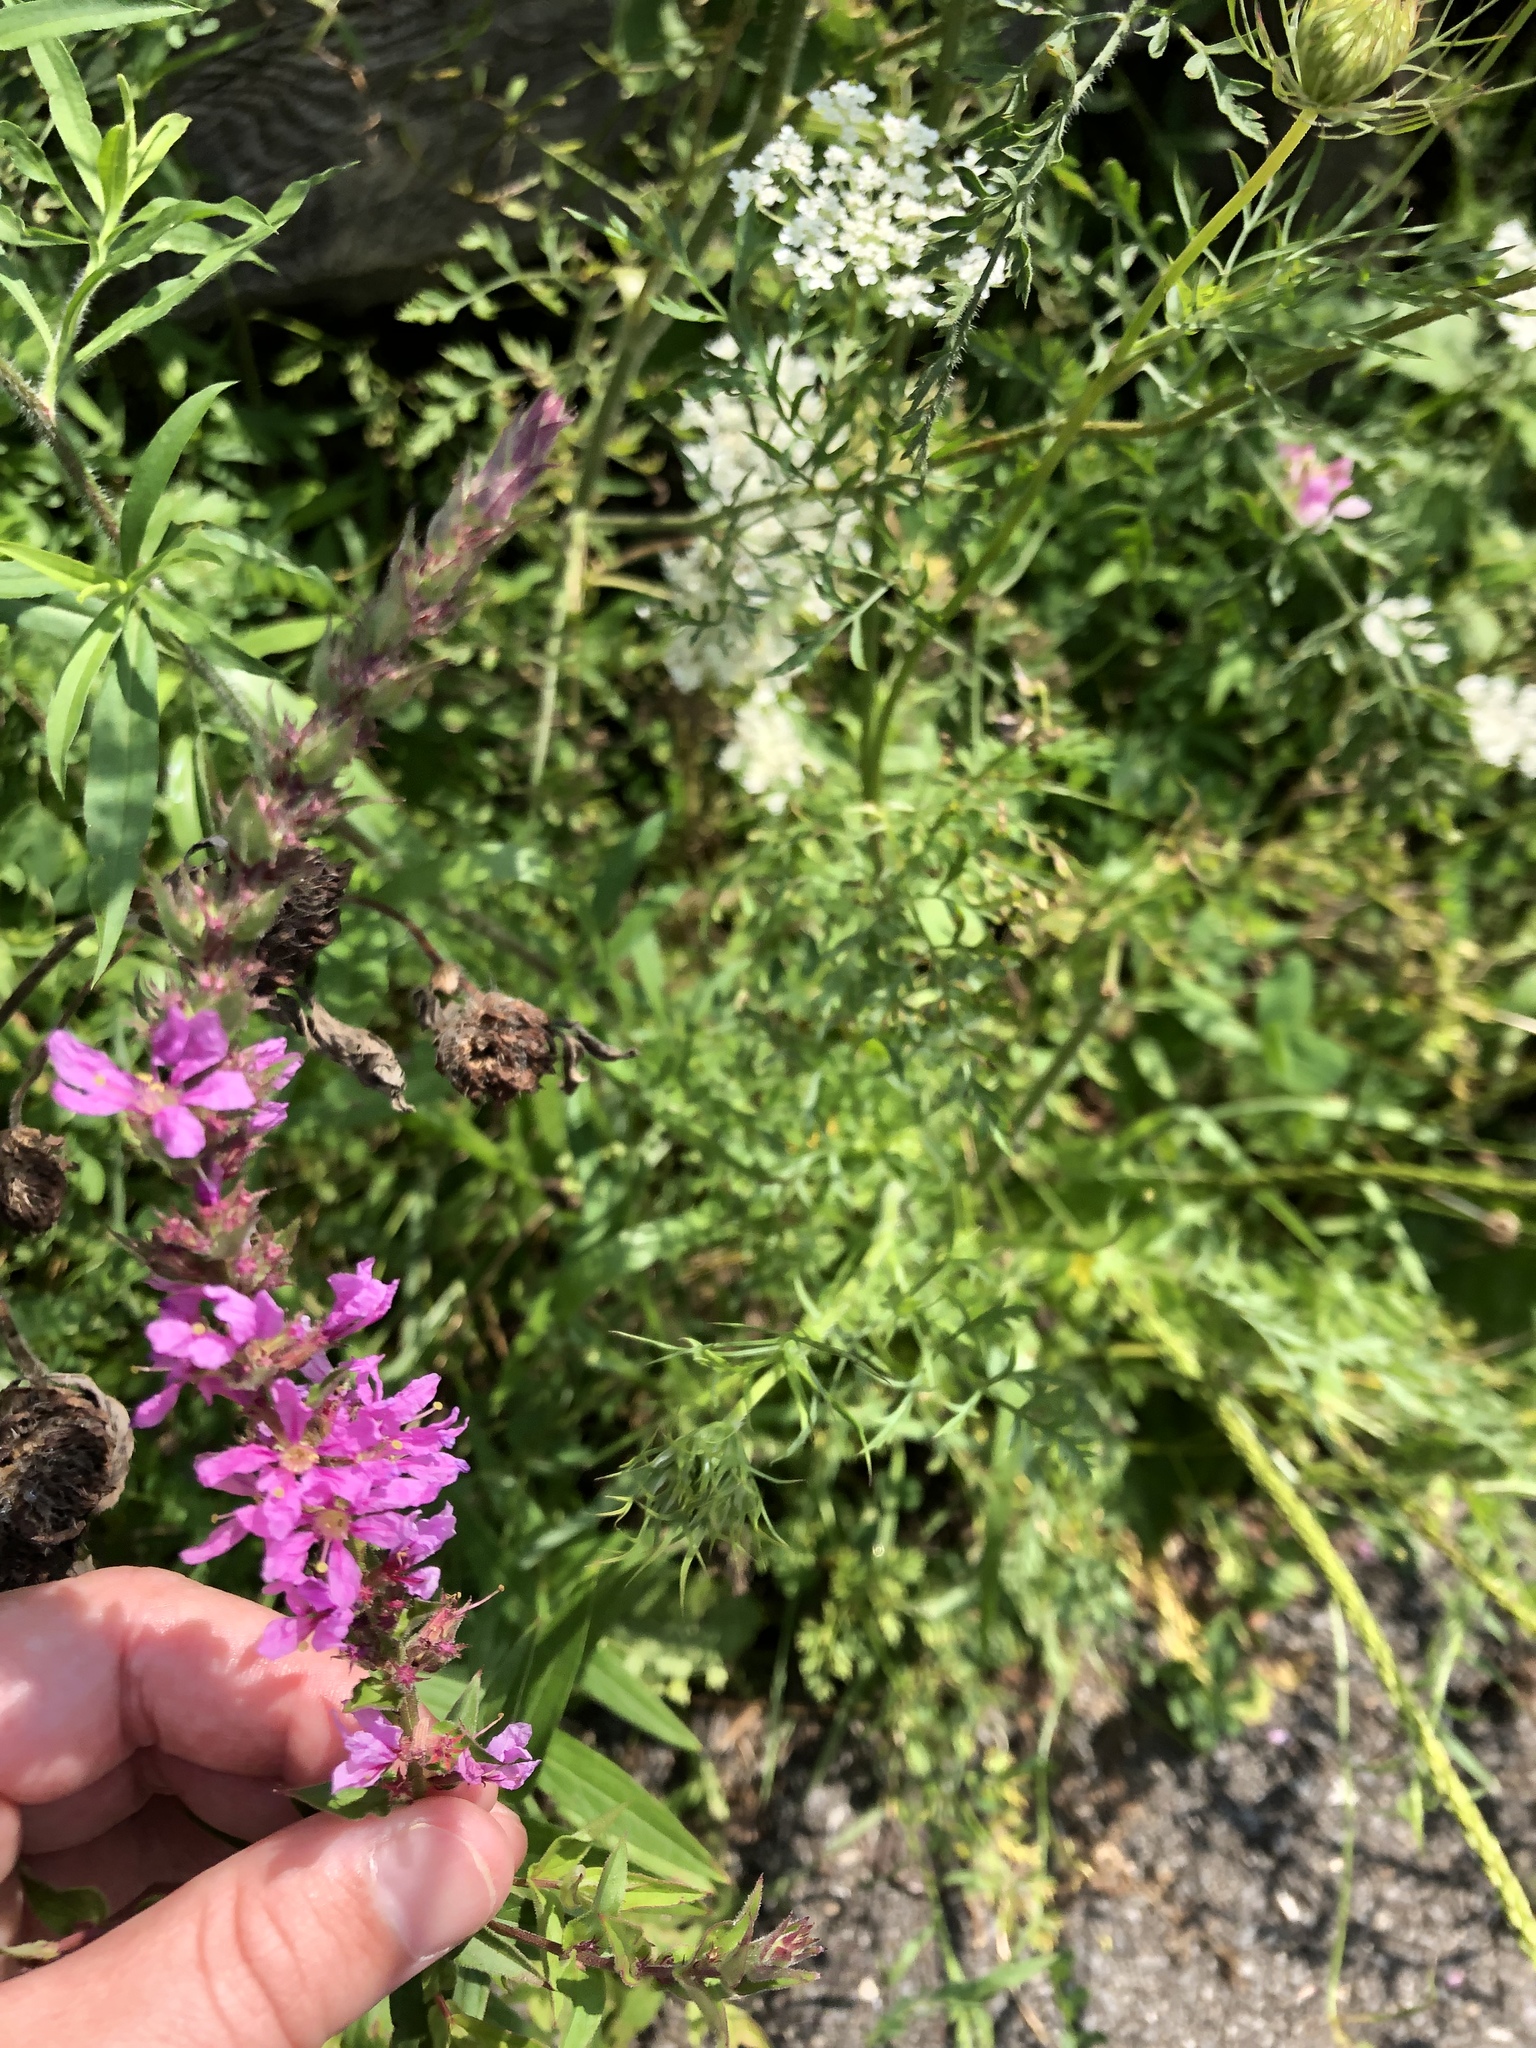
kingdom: Plantae
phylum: Tracheophyta
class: Magnoliopsida
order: Myrtales
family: Lythraceae
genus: Lythrum
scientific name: Lythrum salicaria
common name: Purple loosestrife
